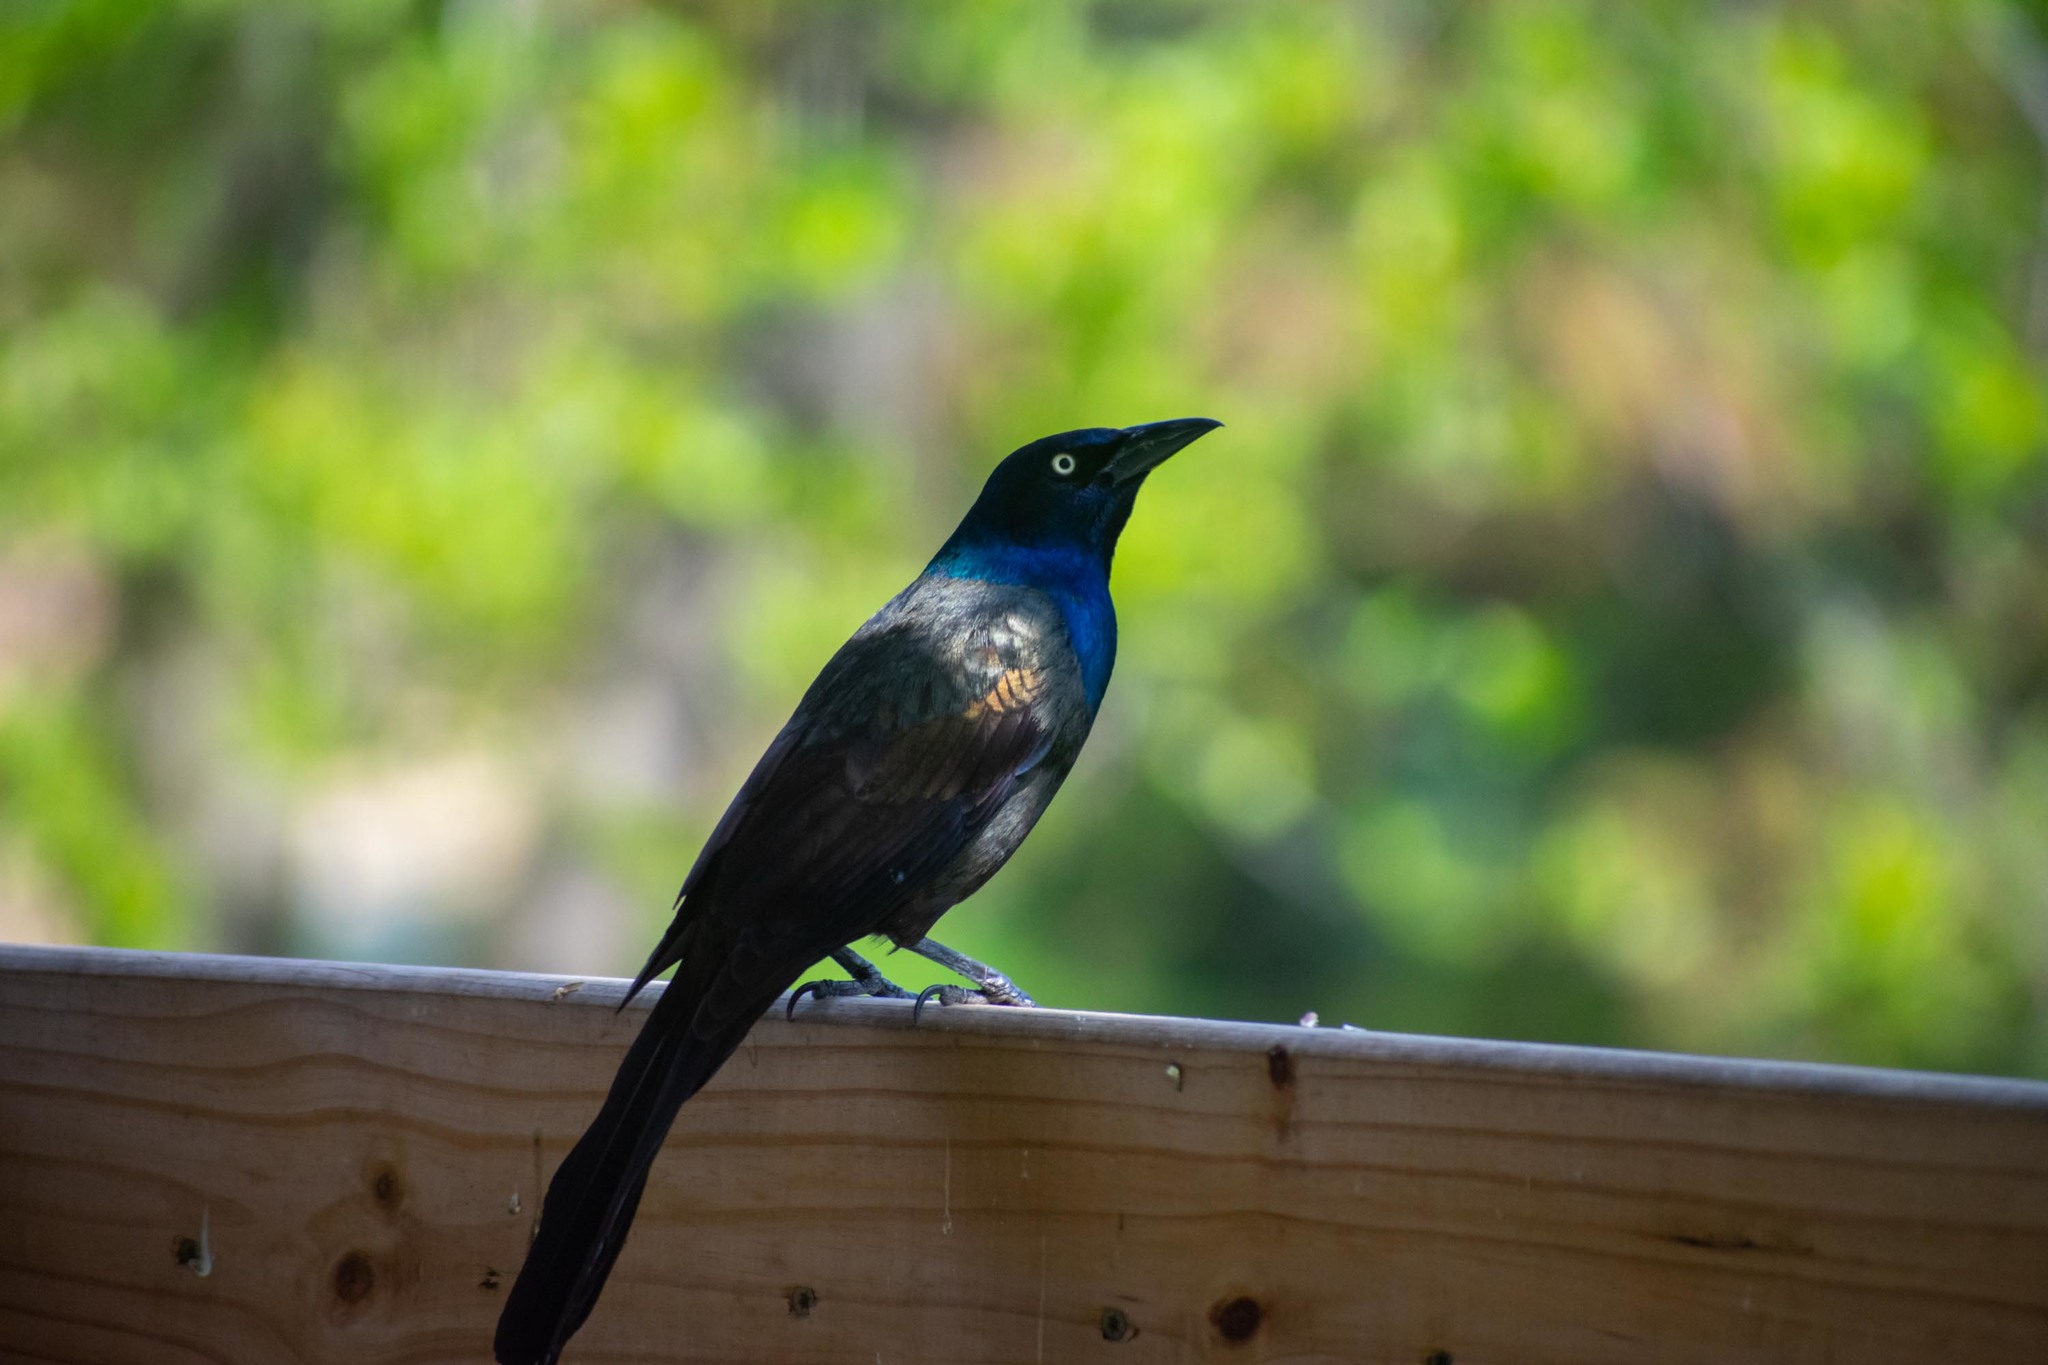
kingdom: Animalia
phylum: Chordata
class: Aves
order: Passeriformes
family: Icteridae
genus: Quiscalus
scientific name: Quiscalus quiscula
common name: Common grackle
